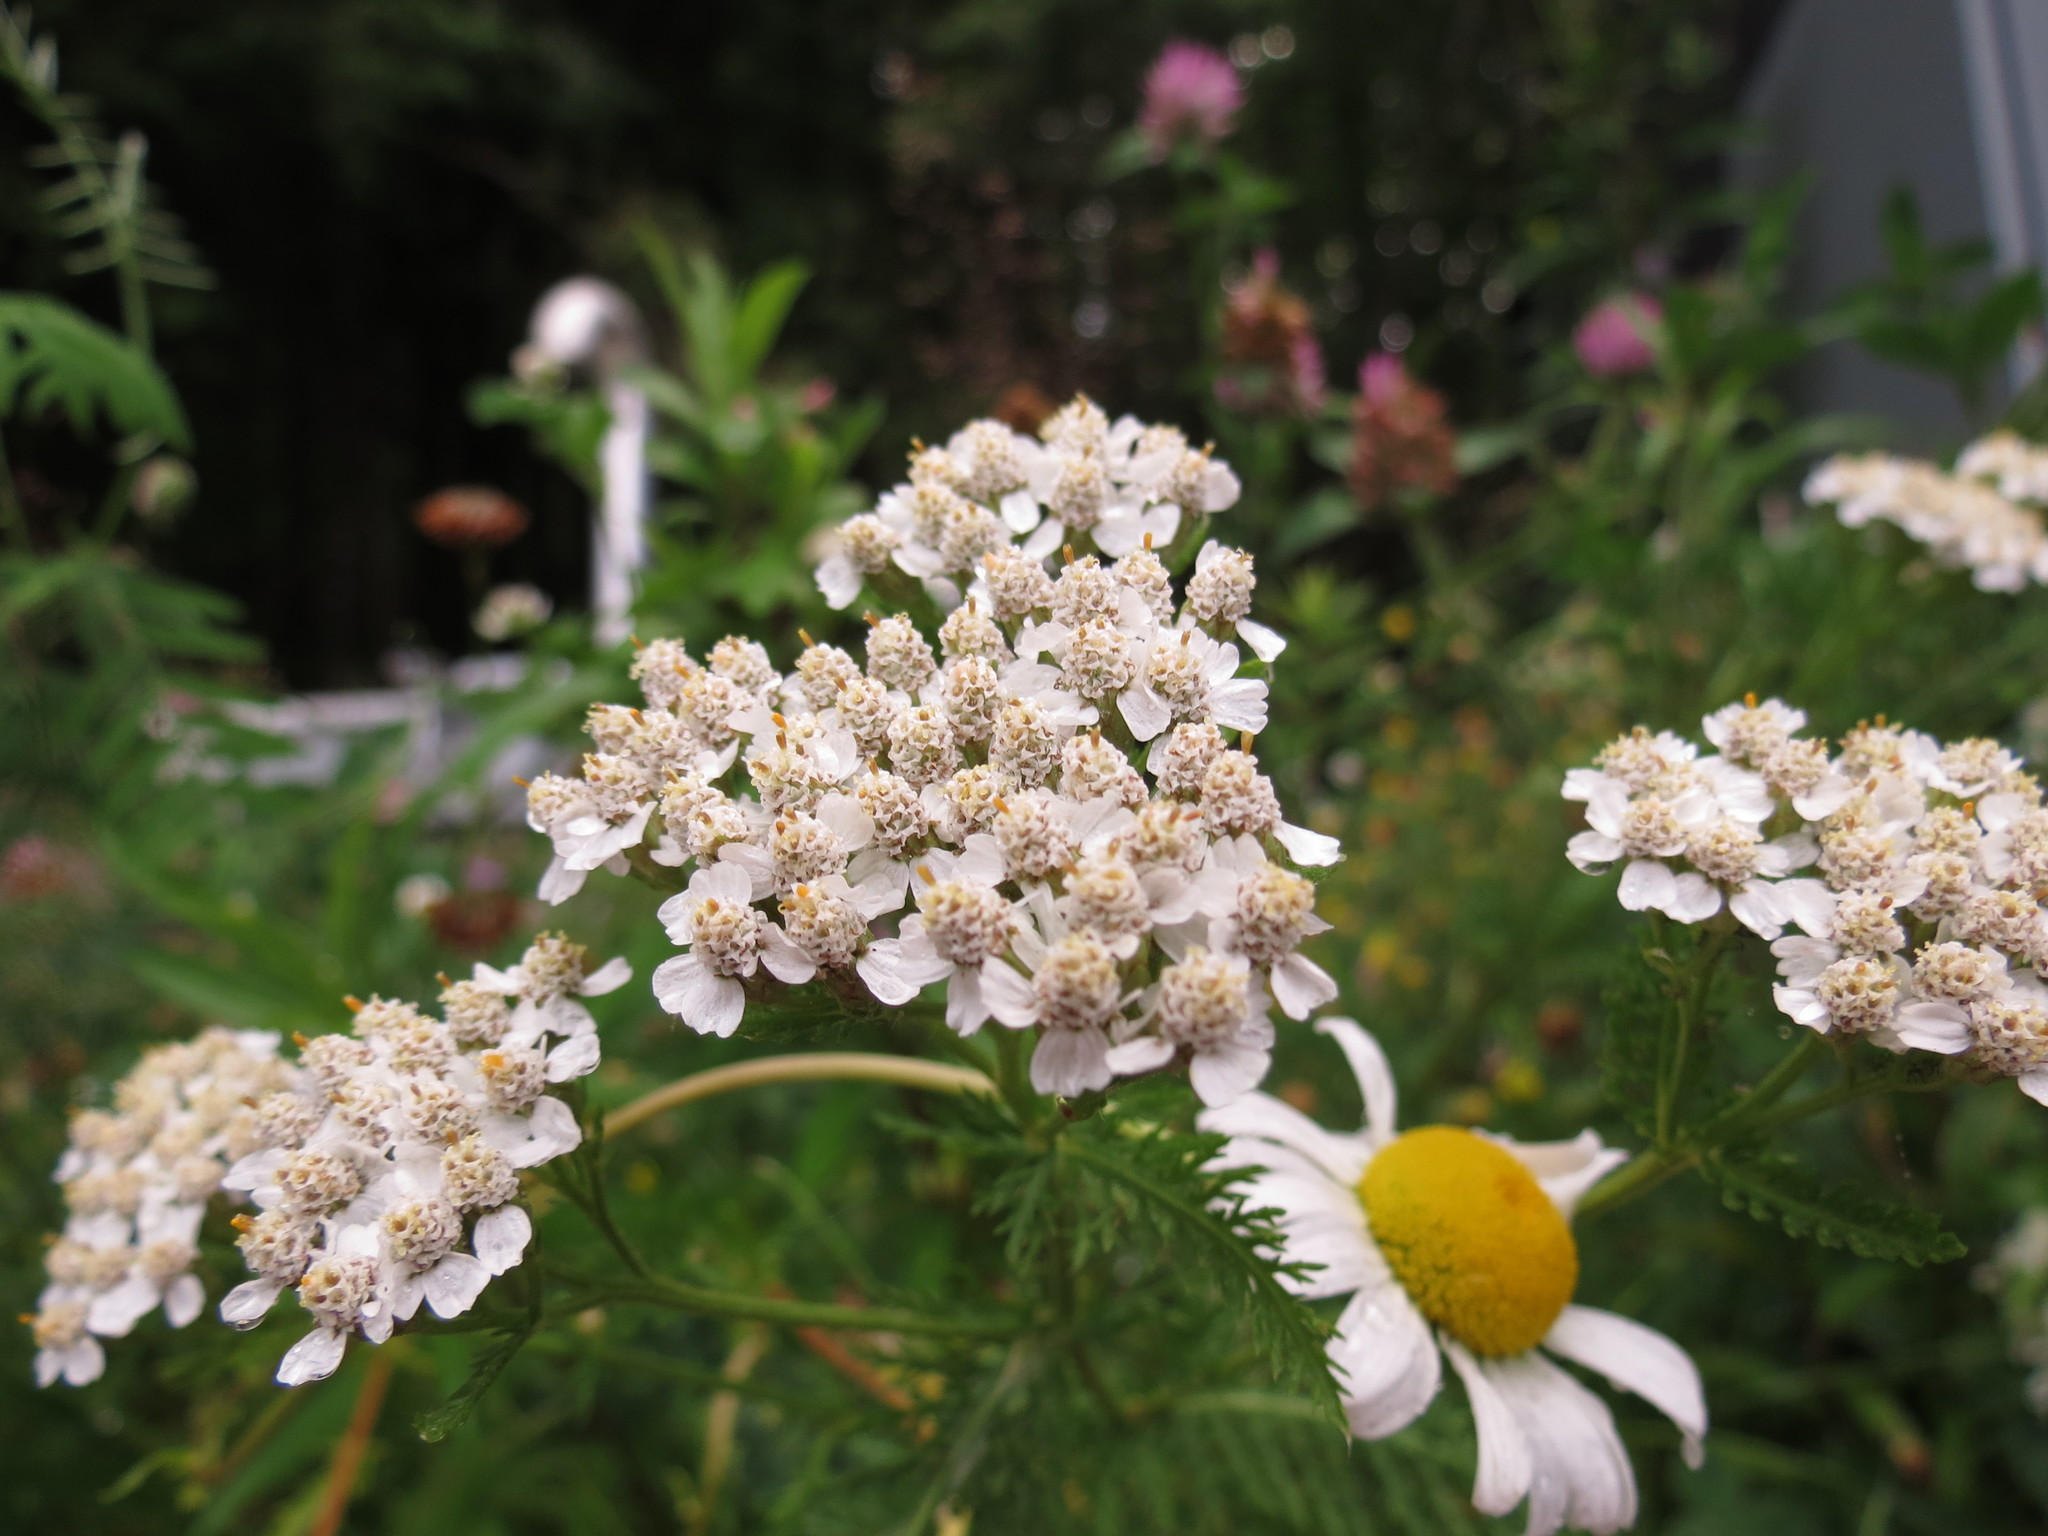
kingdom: Plantae
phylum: Tracheophyta
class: Magnoliopsida
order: Asterales
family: Asteraceae
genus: Achillea
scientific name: Achillea millefolium
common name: Yarrow
